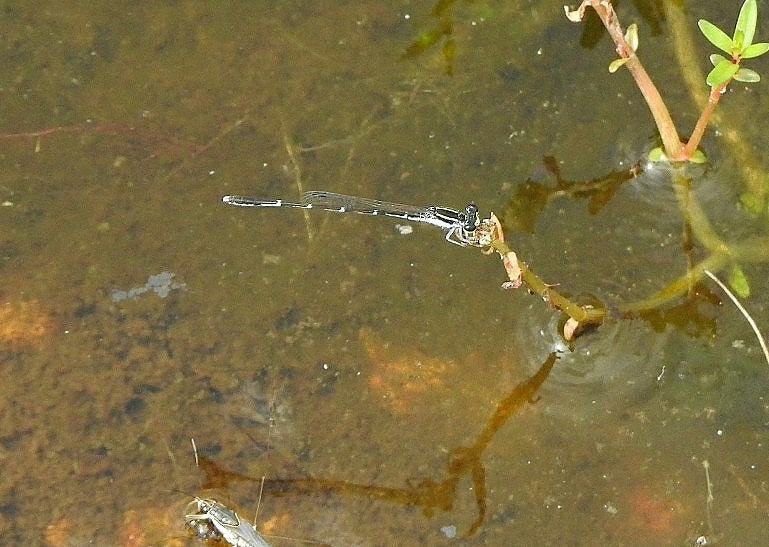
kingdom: Animalia
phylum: Arthropoda
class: Insecta
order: Odonata
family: Coenagrionidae
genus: Agriocnemis
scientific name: Agriocnemis splendidissima
